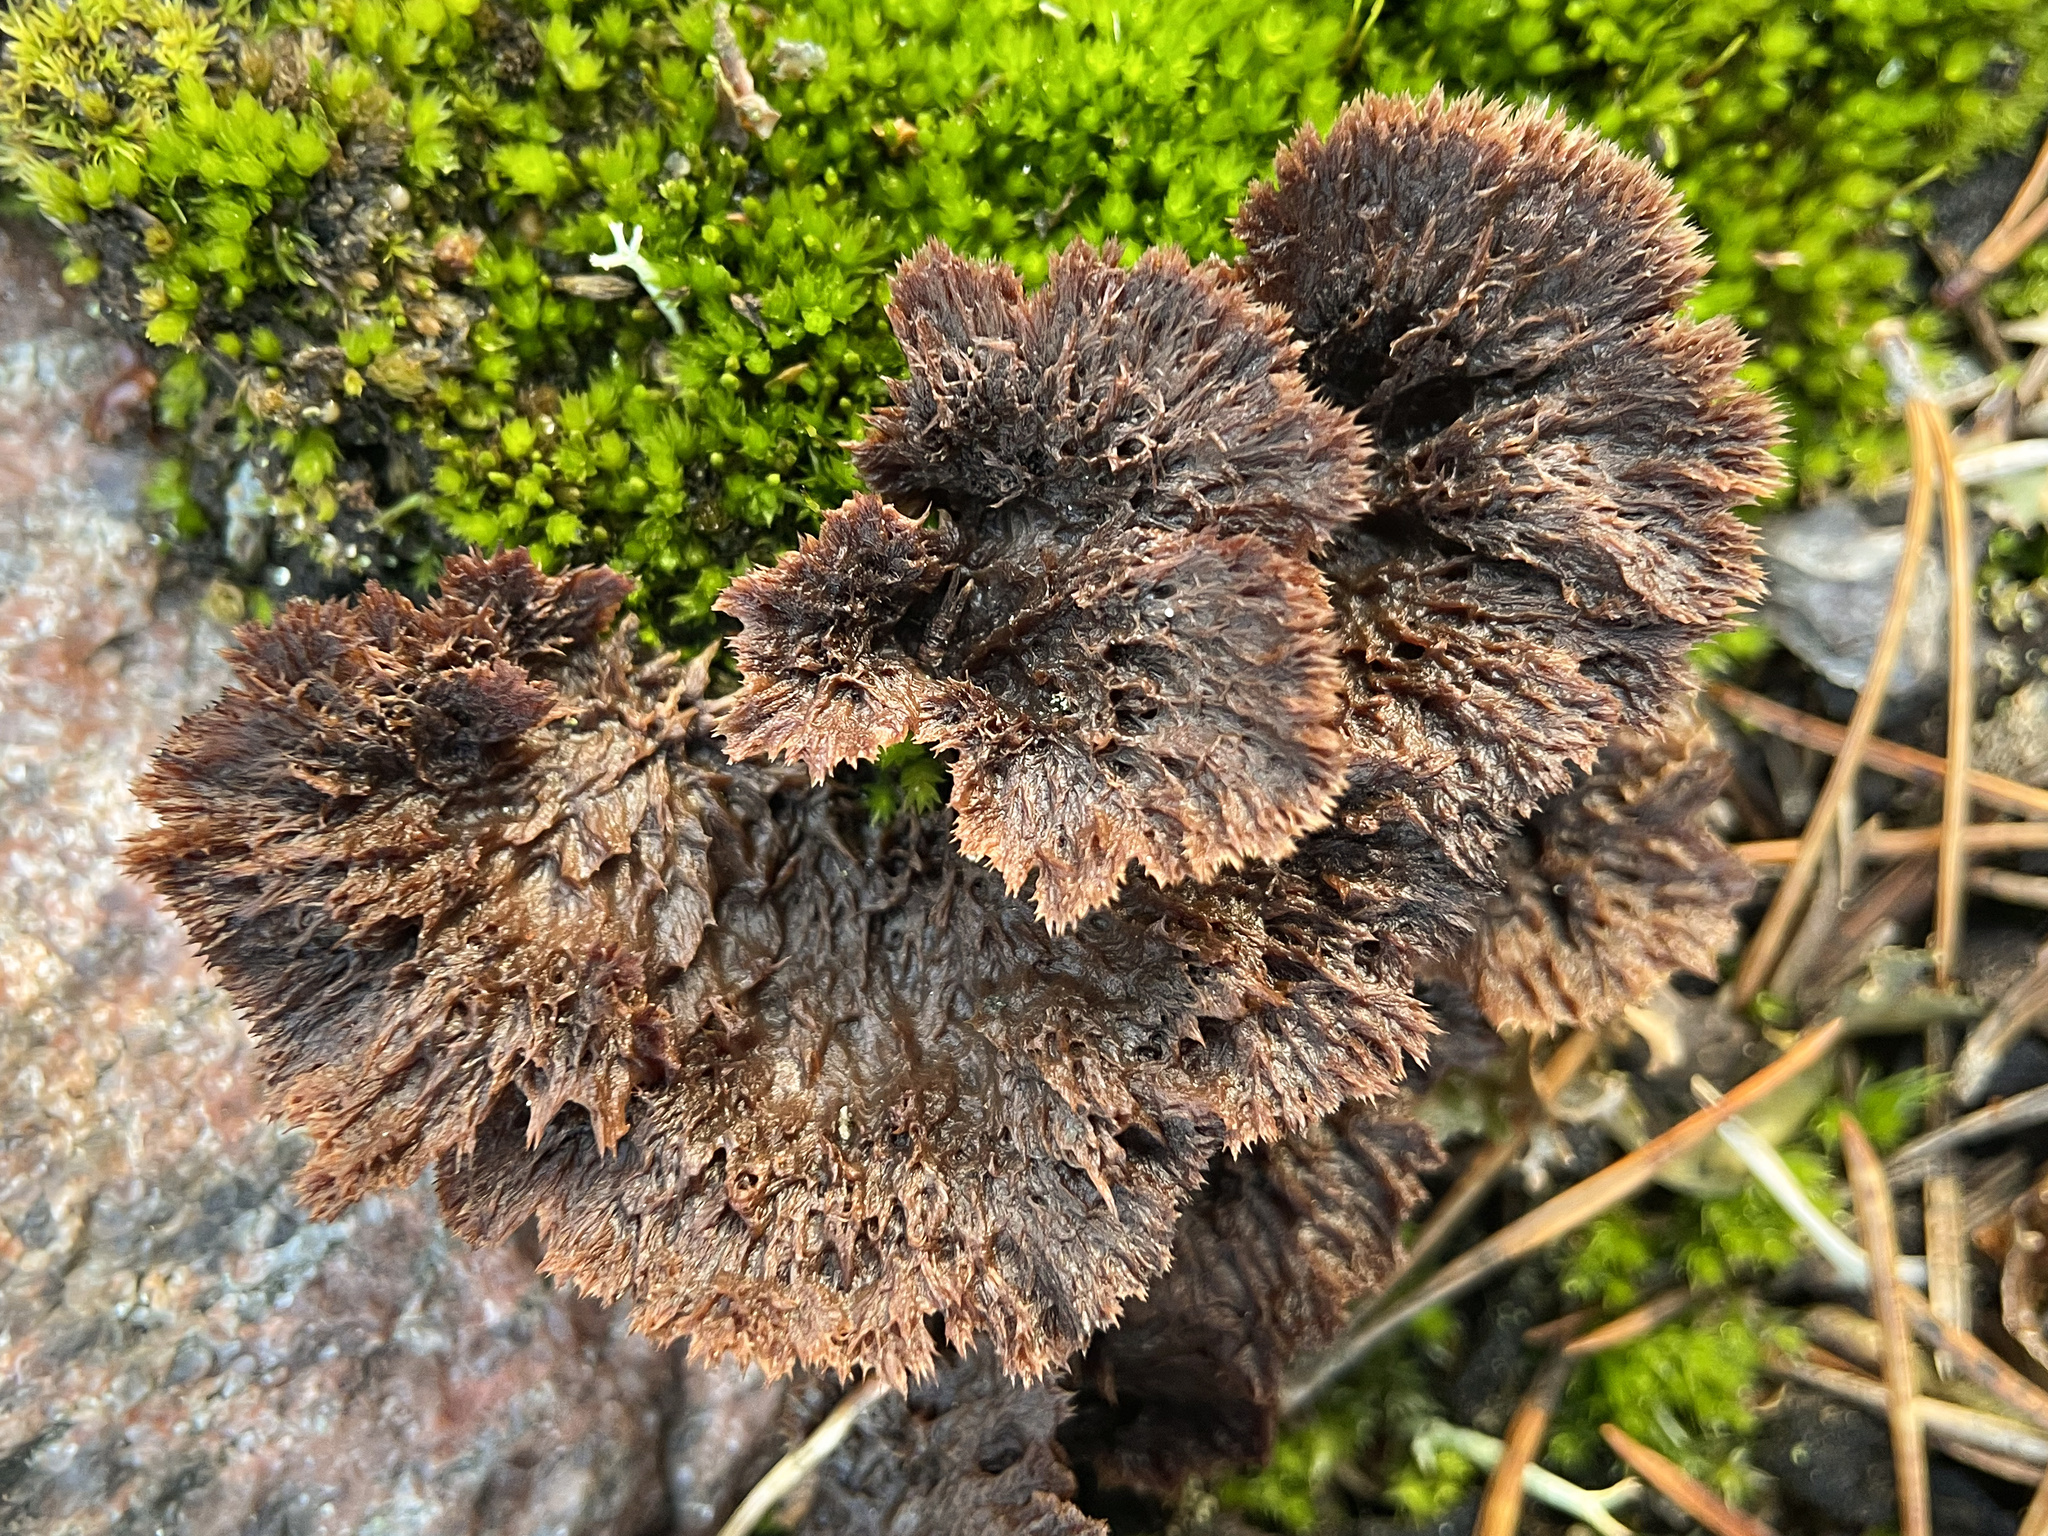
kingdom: Fungi
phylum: Basidiomycota
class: Agaricomycetes
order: Thelephorales
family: Thelephoraceae
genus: Thelephora
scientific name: Thelephora terrestris
